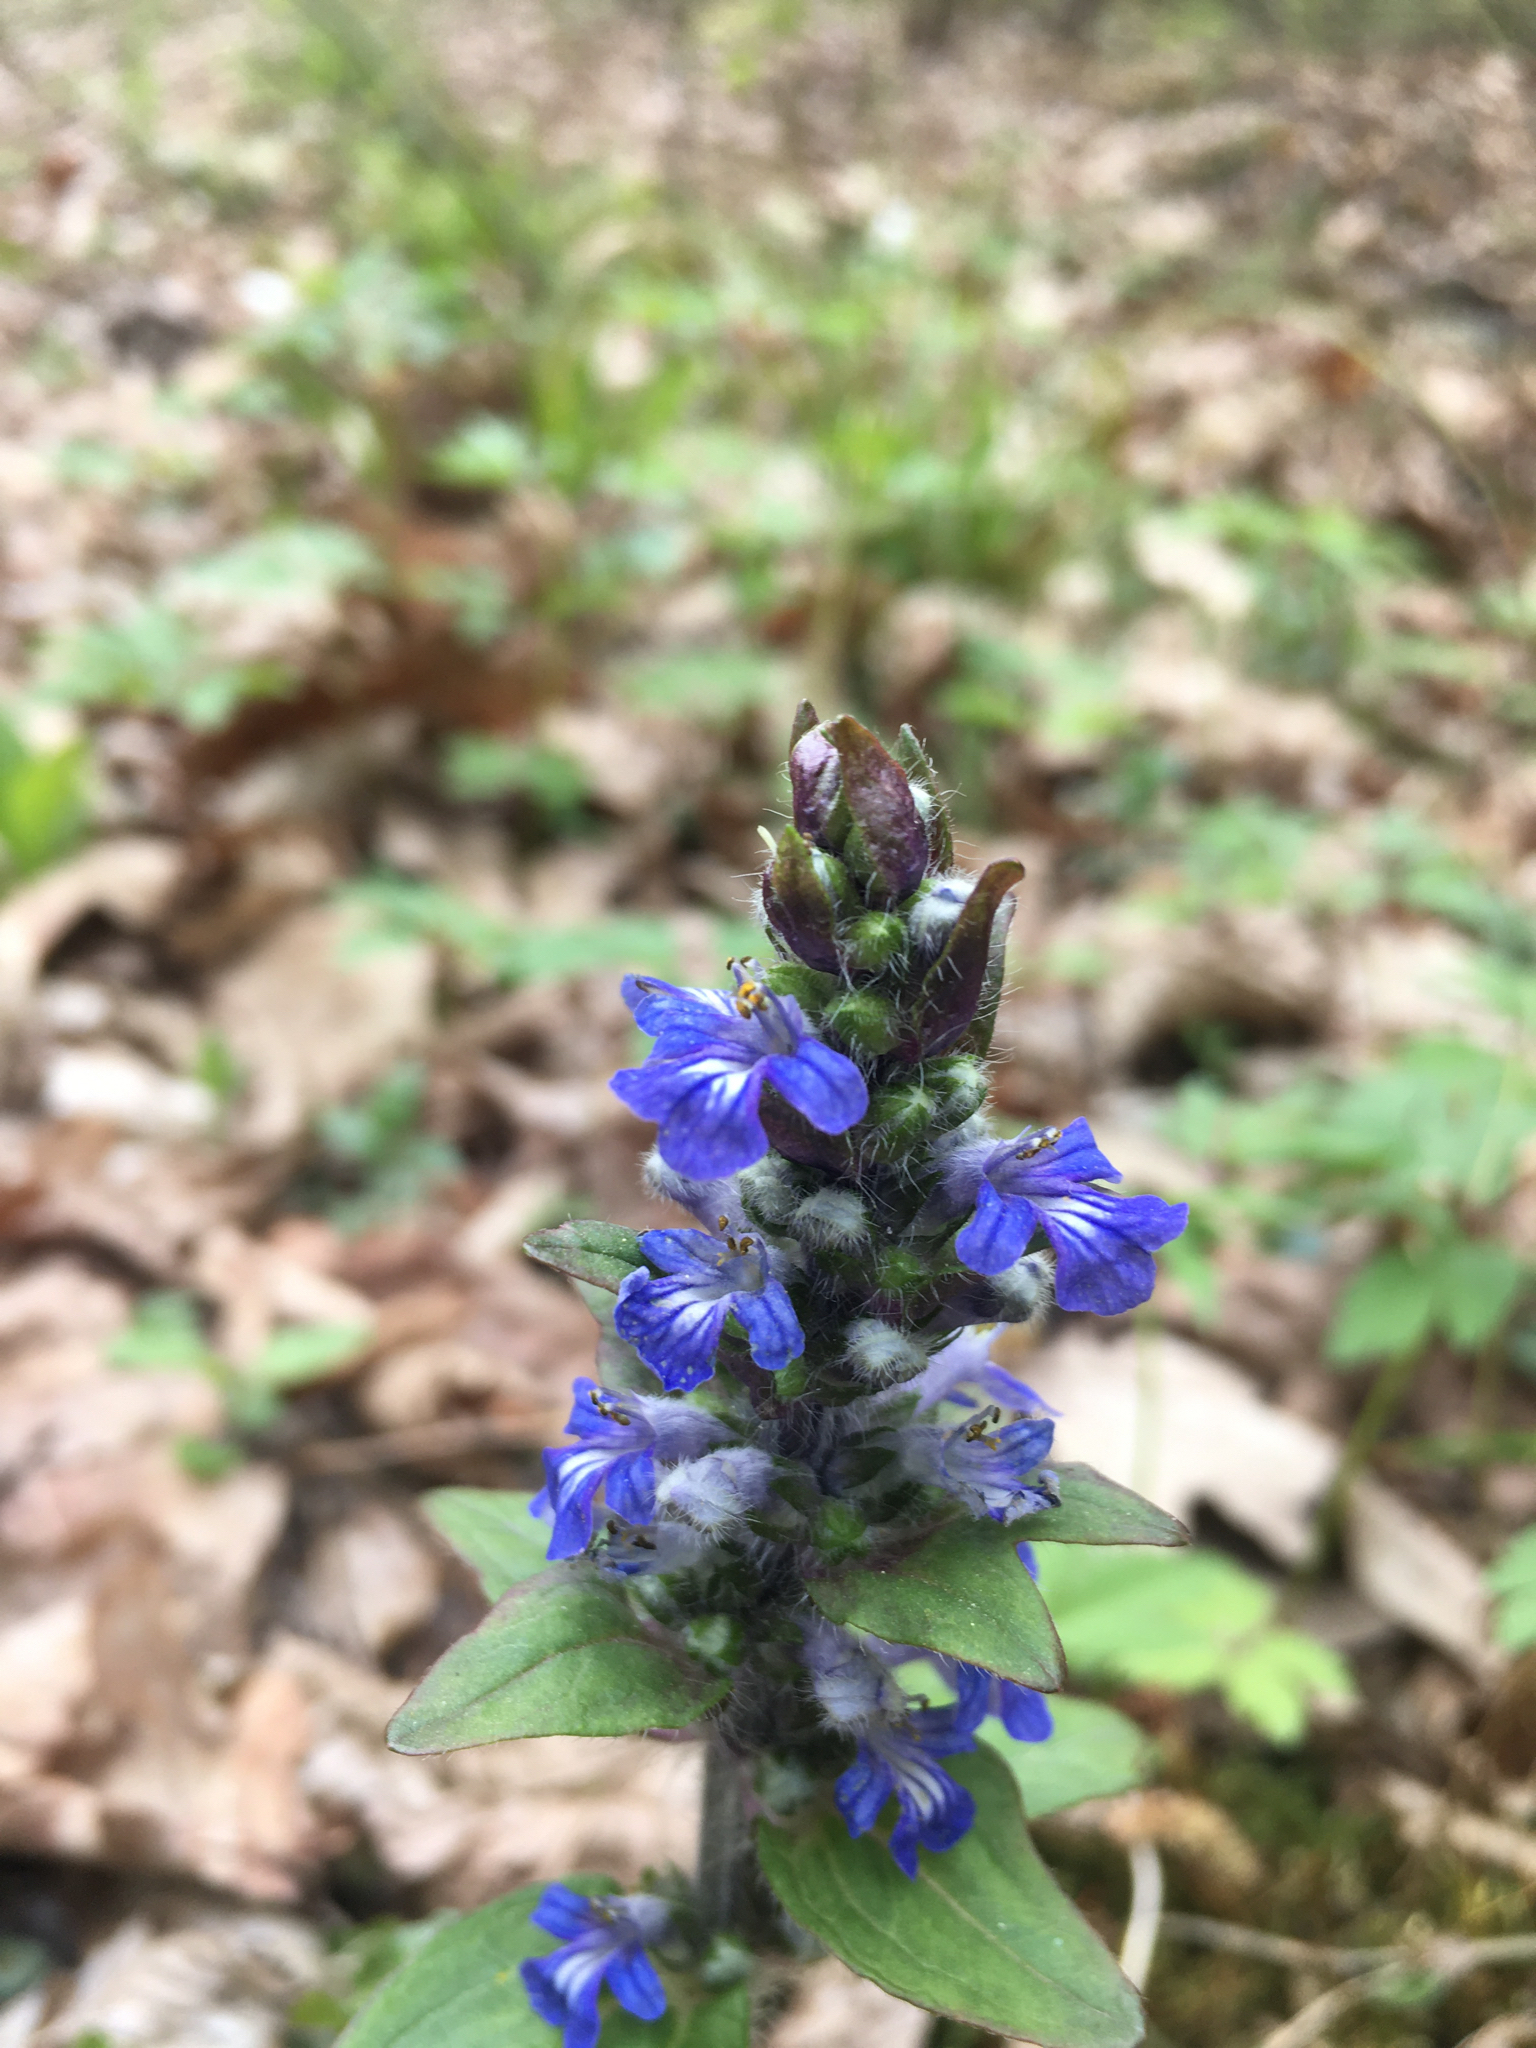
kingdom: Plantae
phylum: Tracheophyta
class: Magnoliopsida
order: Lamiales
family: Lamiaceae
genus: Ajuga
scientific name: Ajuga reptans
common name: Bugle
